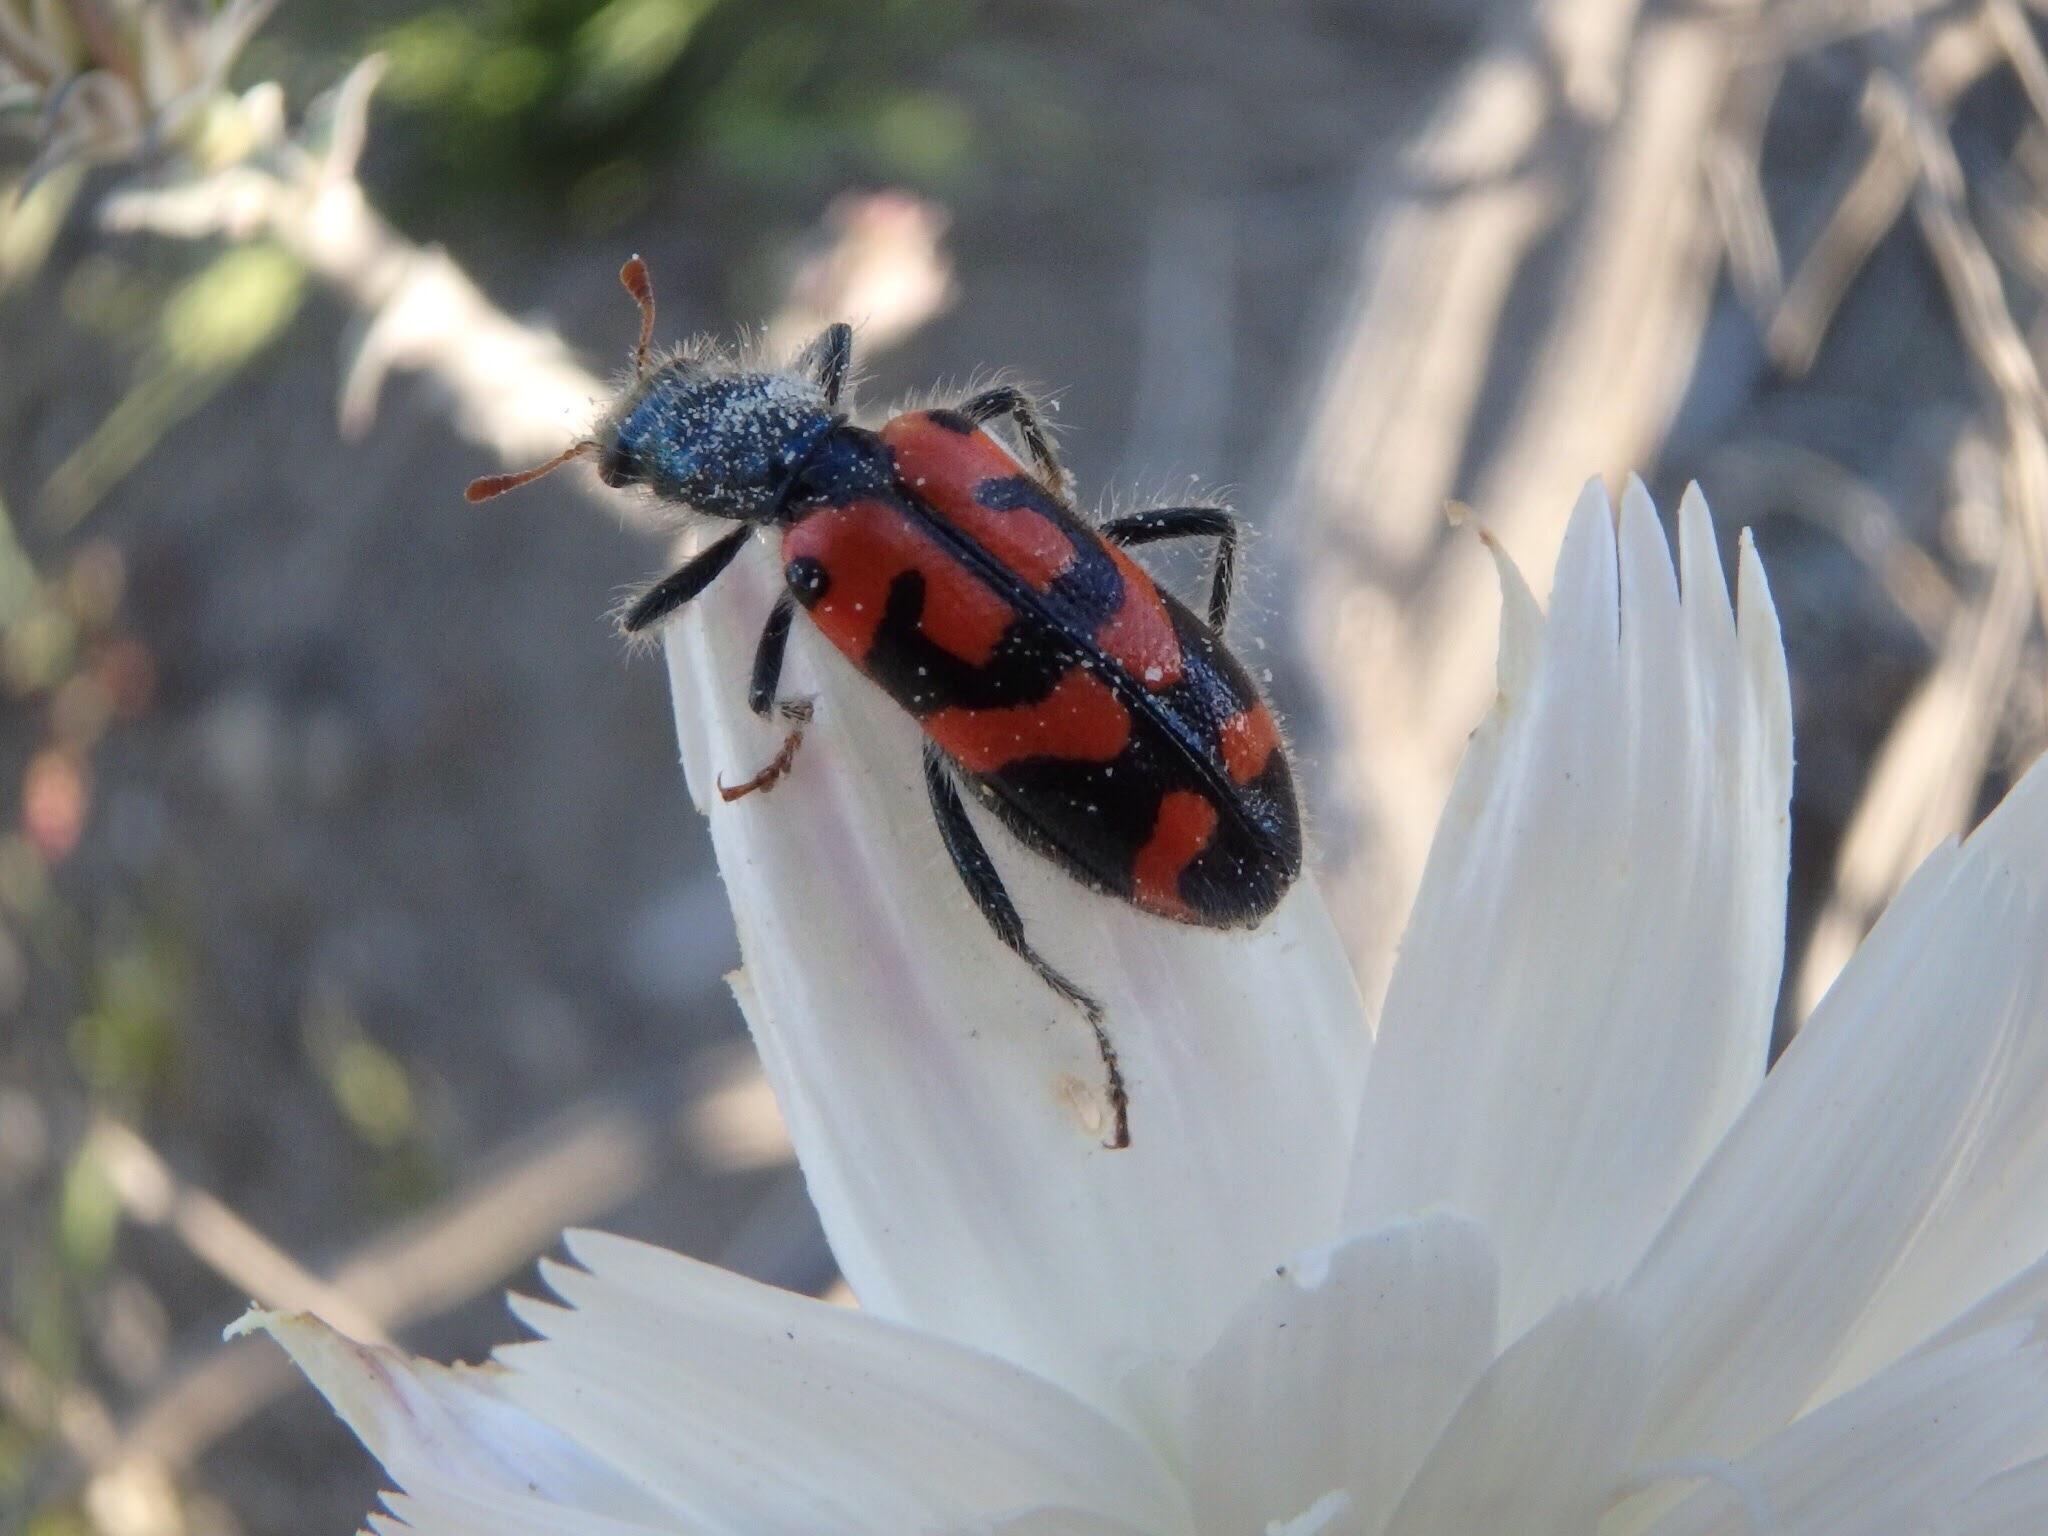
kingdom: Animalia
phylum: Arthropoda
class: Insecta
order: Coleoptera
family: Cleridae
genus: Trichodes
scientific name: Trichodes ornatus
